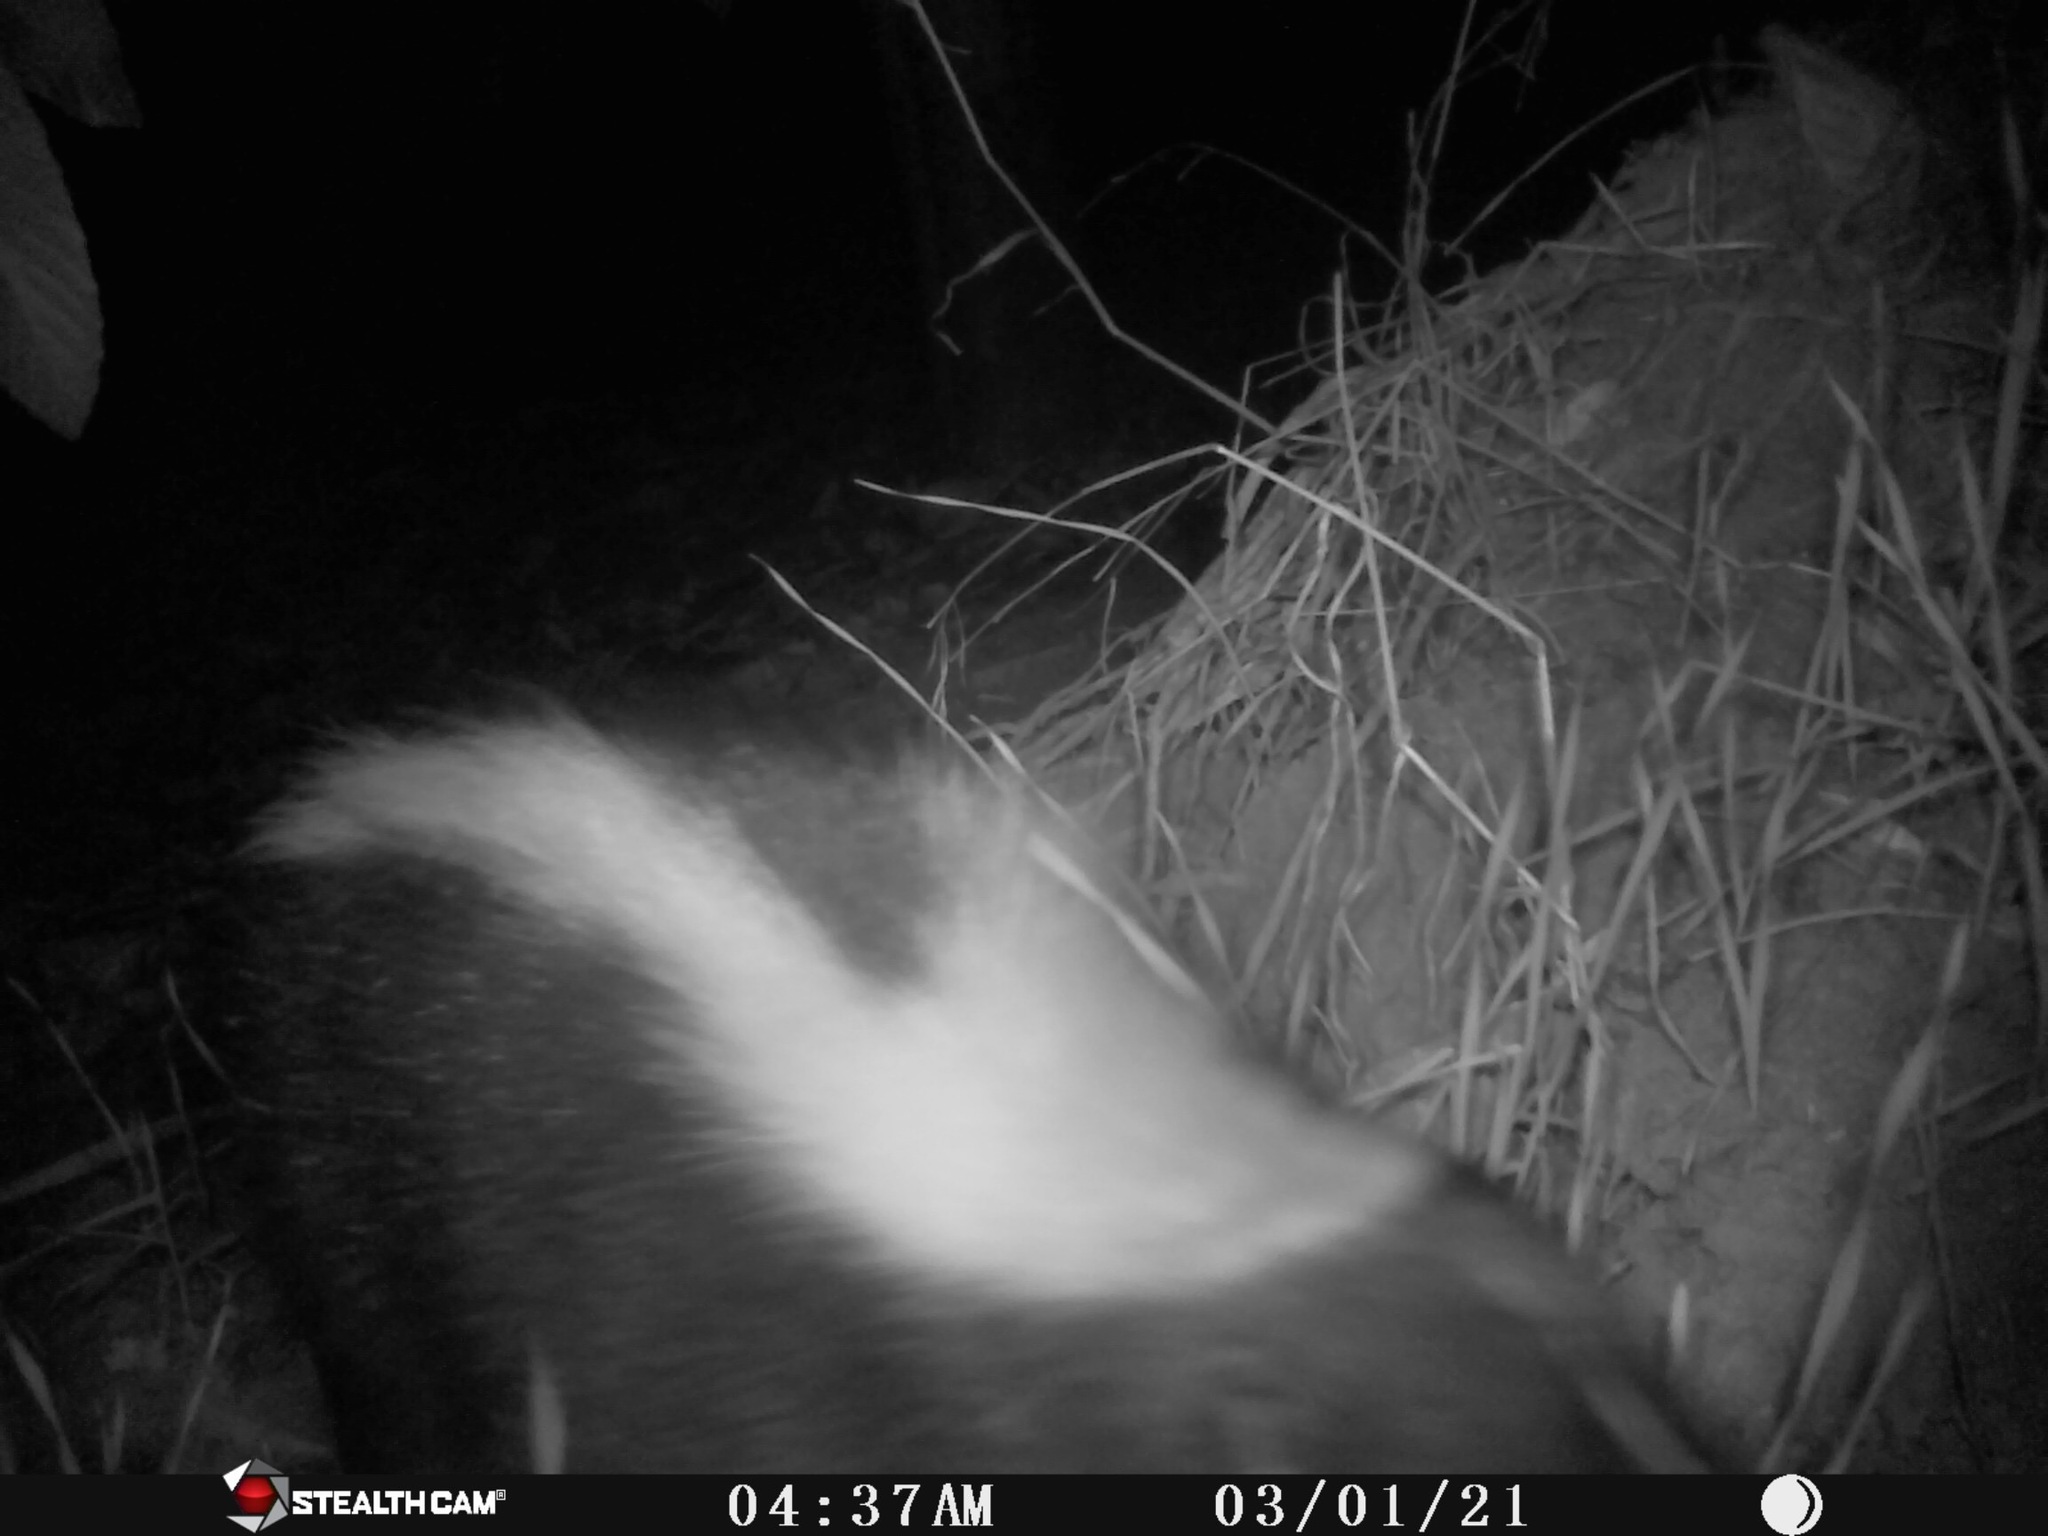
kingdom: Animalia
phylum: Chordata
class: Mammalia
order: Carnivora
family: Mephitidae
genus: Mephitis
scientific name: Mephitis mephitis
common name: Striped skunk
